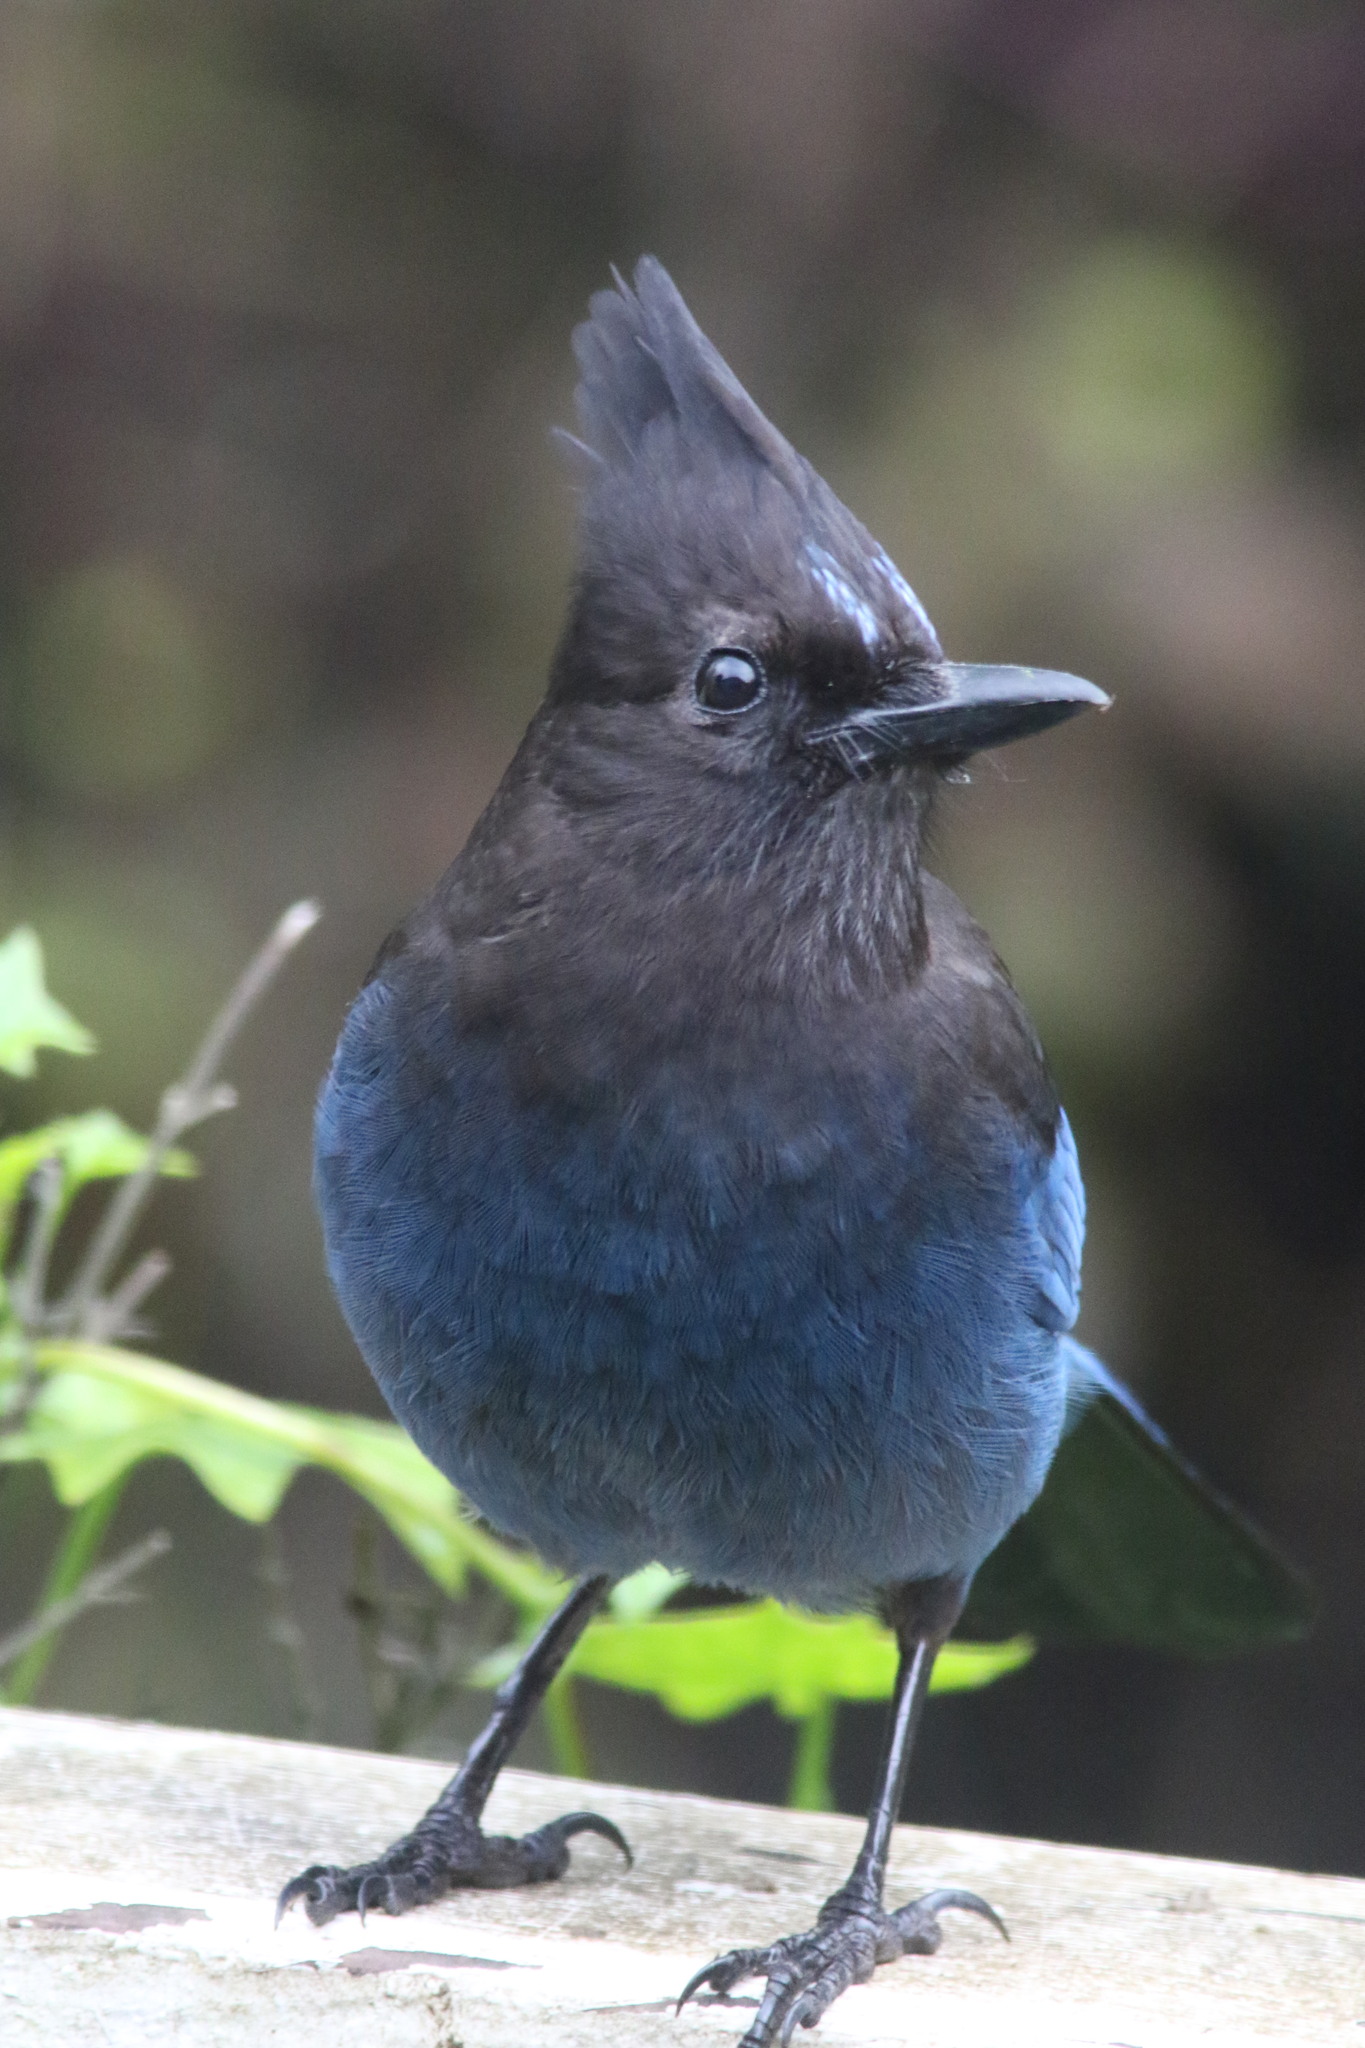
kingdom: Animalia
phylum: Chordata
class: Aves
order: Passeriformes
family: Corvidae
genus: Cyanocitta
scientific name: Cyanocitta stelleri
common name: Steller's jay
